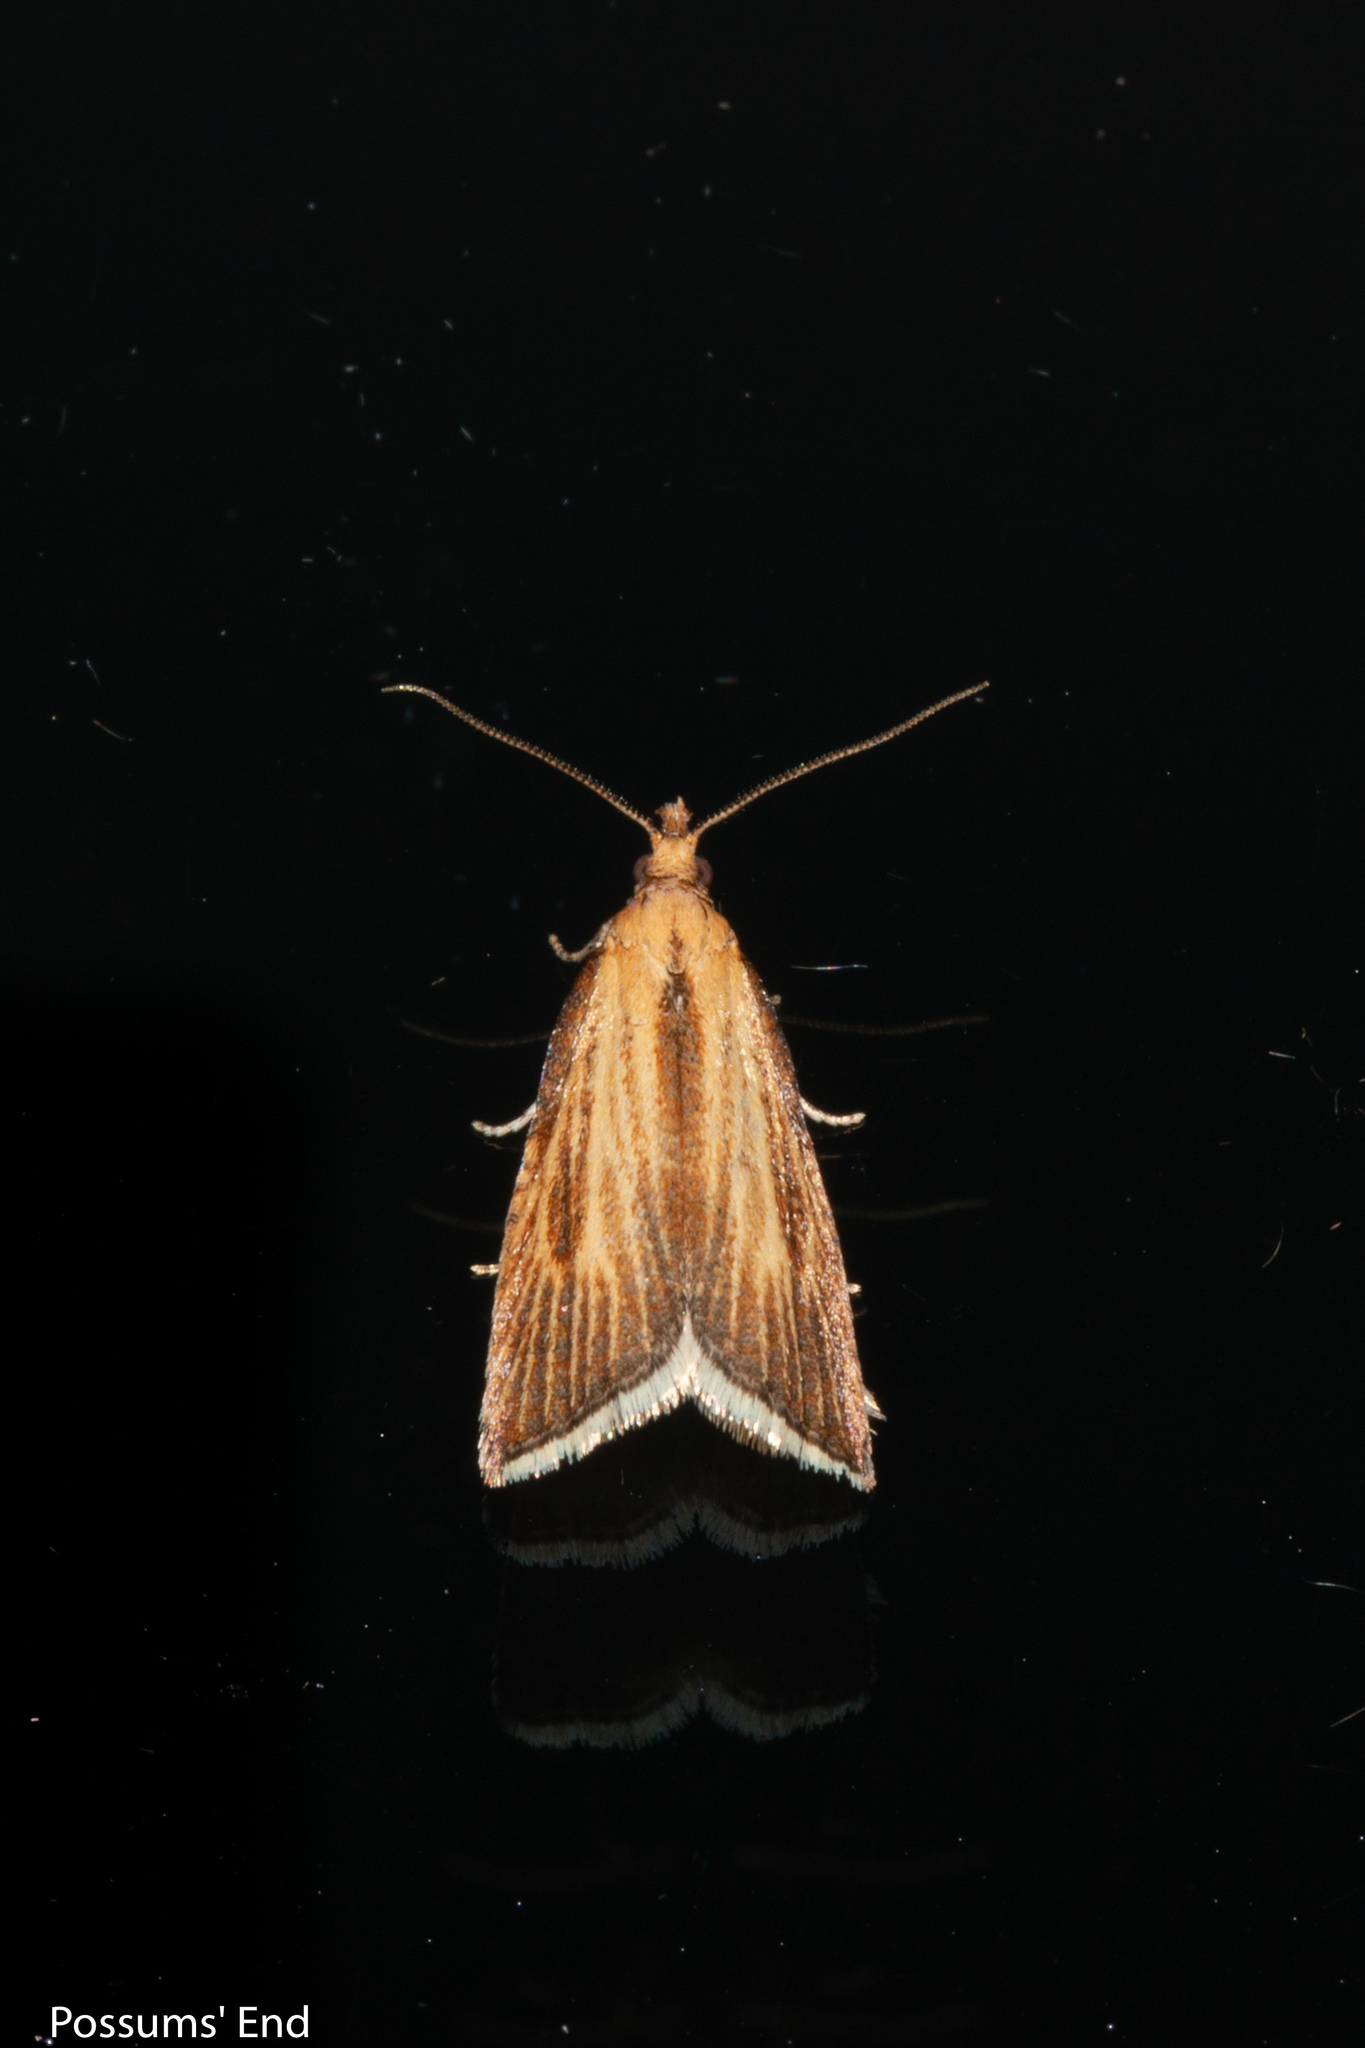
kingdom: Animalia
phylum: Arthropoda
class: Insecta
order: Lepidoptera
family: Tortricidae
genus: Catamacta
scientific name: Catamacta lotinana
